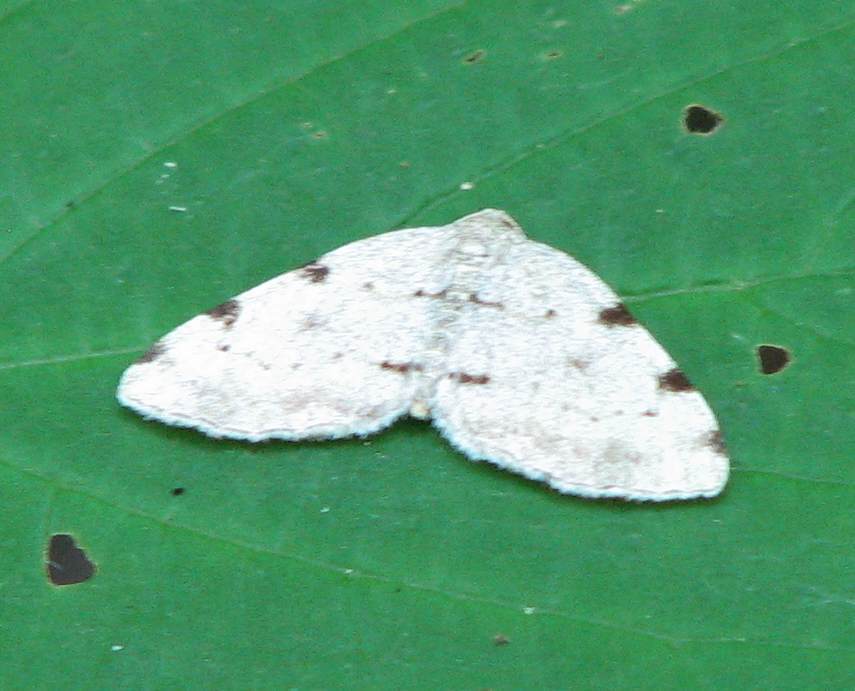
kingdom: Animalia
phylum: Arthropoda
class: Insecta
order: Lepidoptera
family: Geometridae
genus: Heterophleps
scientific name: Heterophleps refusaria
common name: Three-patched bigwing
